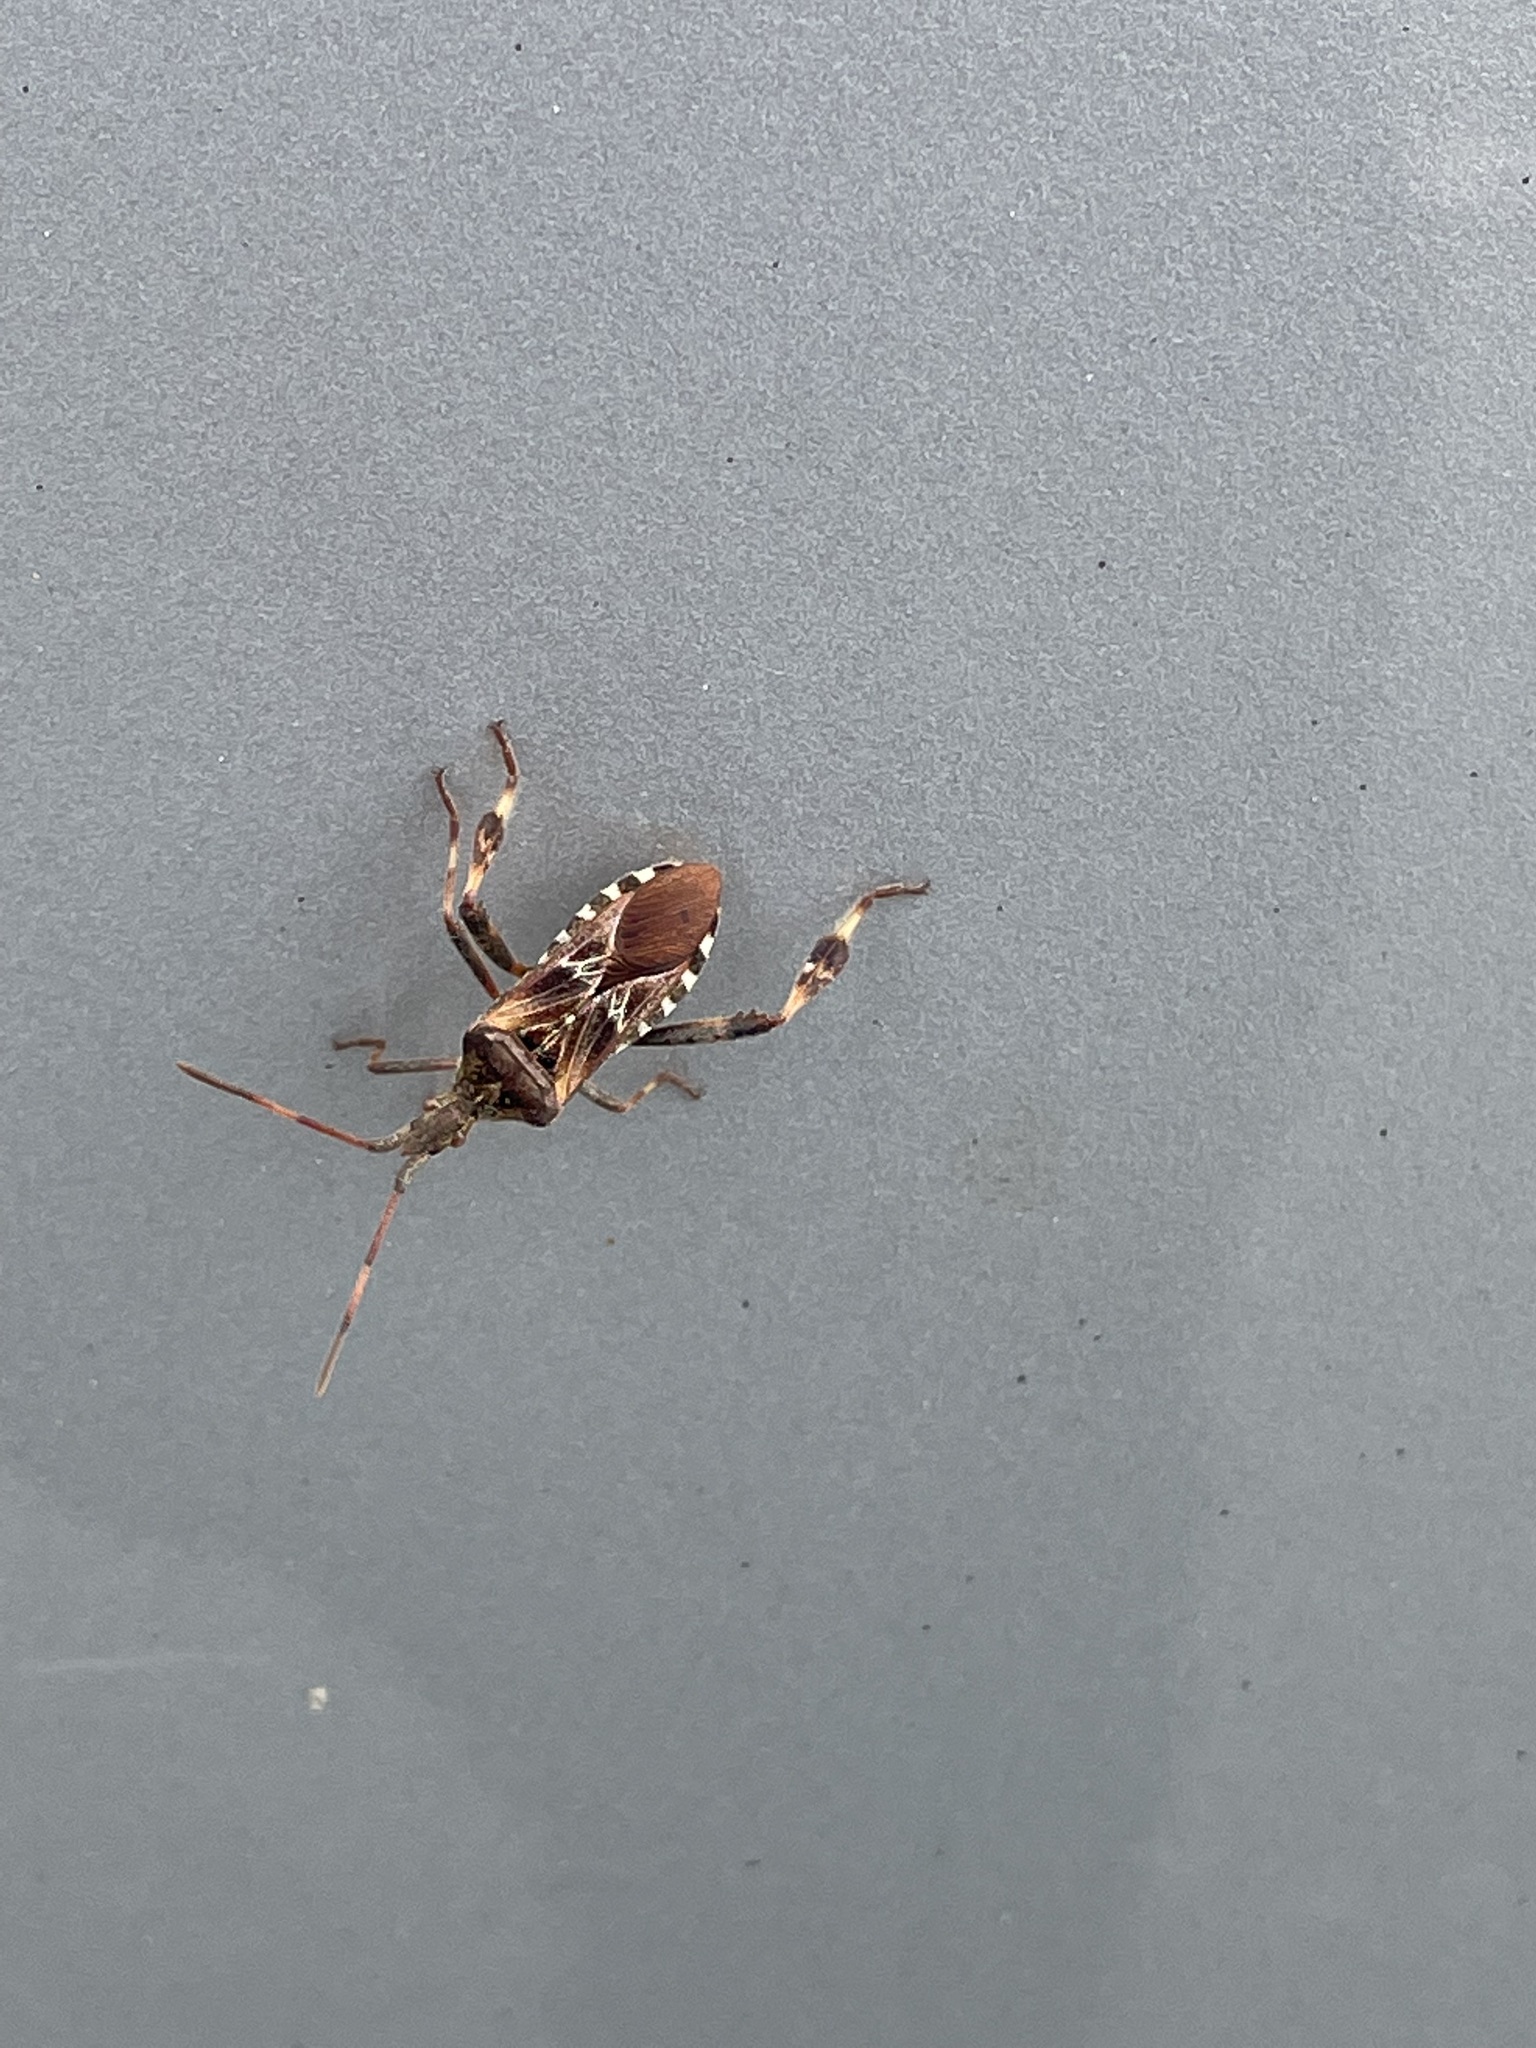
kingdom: Animalia
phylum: Arthropoda
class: Insecta
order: Hemiptera
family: Coreidae
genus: Leptoglossus
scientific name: Leptoglossus occidentalis
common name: Western conifer-seed bug
